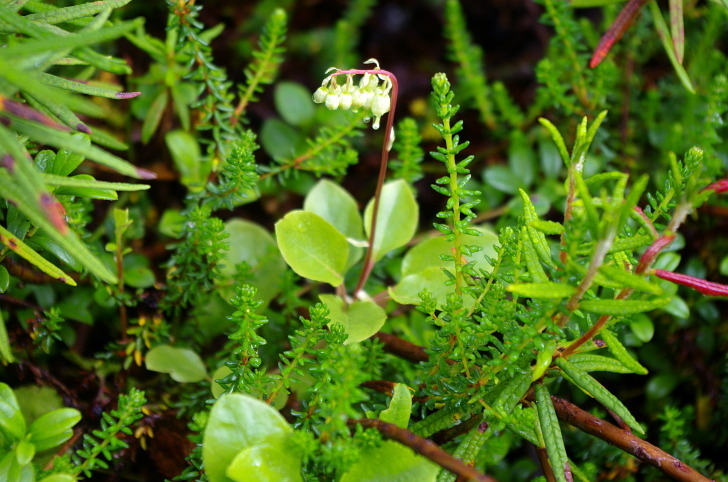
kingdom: Plantae
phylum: Tracheophyta
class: Magnoliopsida
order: Ericales
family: Ericaceae
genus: Orthilia
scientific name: Orthilia secunda
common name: One-sided orthilia
